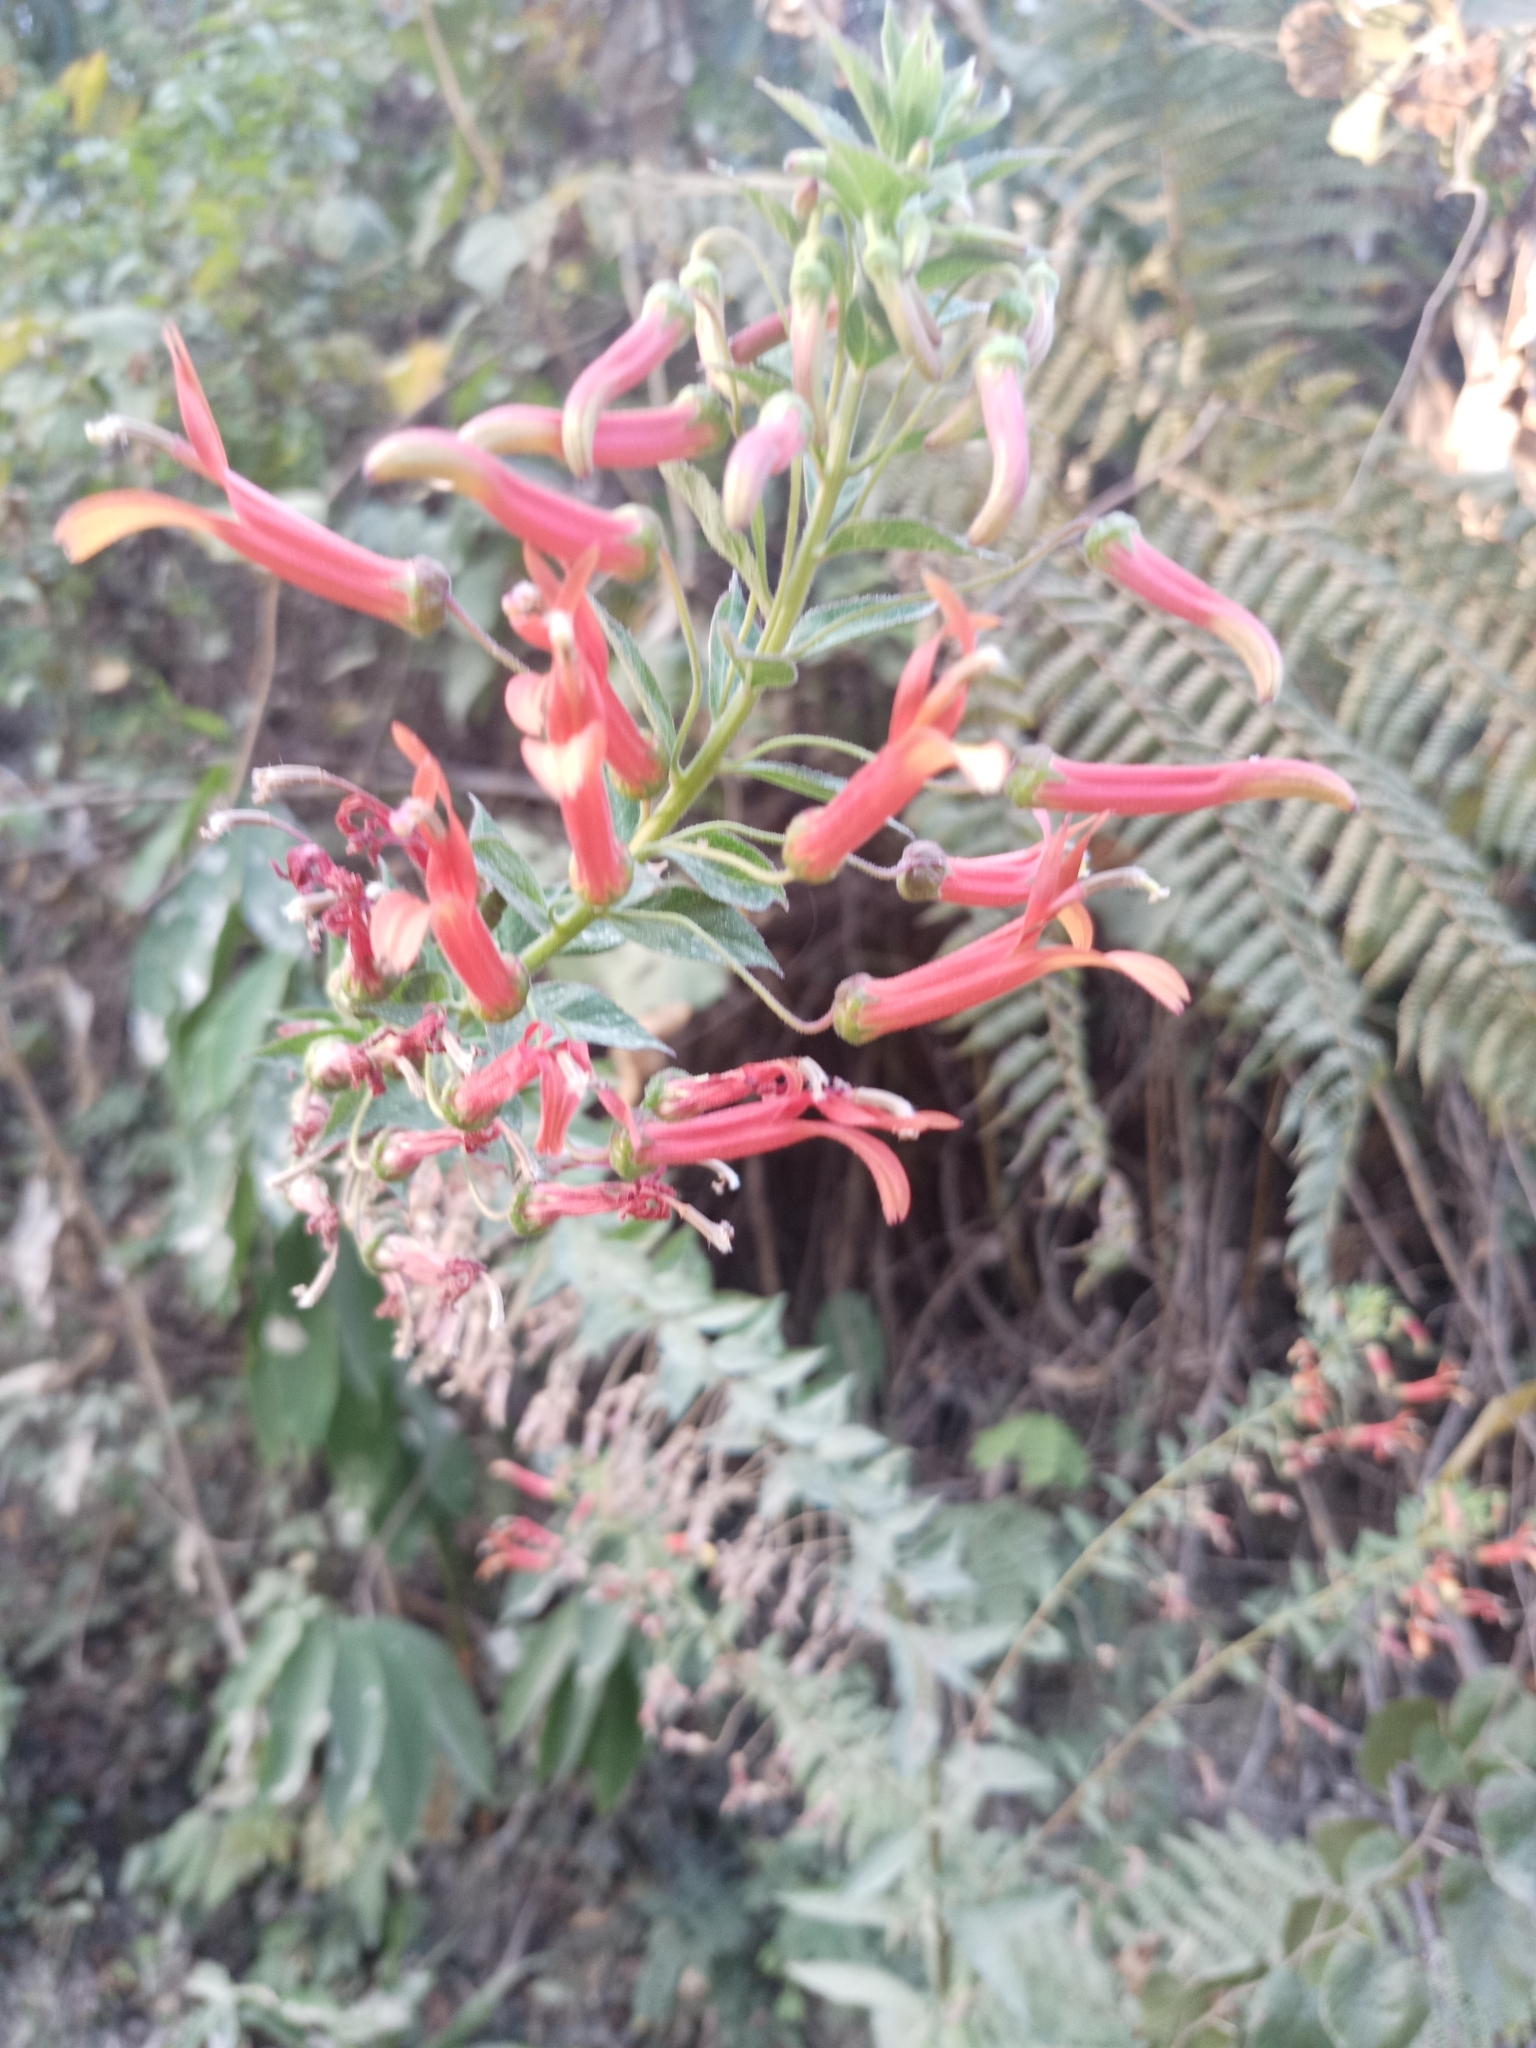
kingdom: Plantae
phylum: Tracheophyta
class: Magnoliopsida
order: Asterales
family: Campanulaceae
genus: Lobelia
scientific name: Lobelia laxiflora
